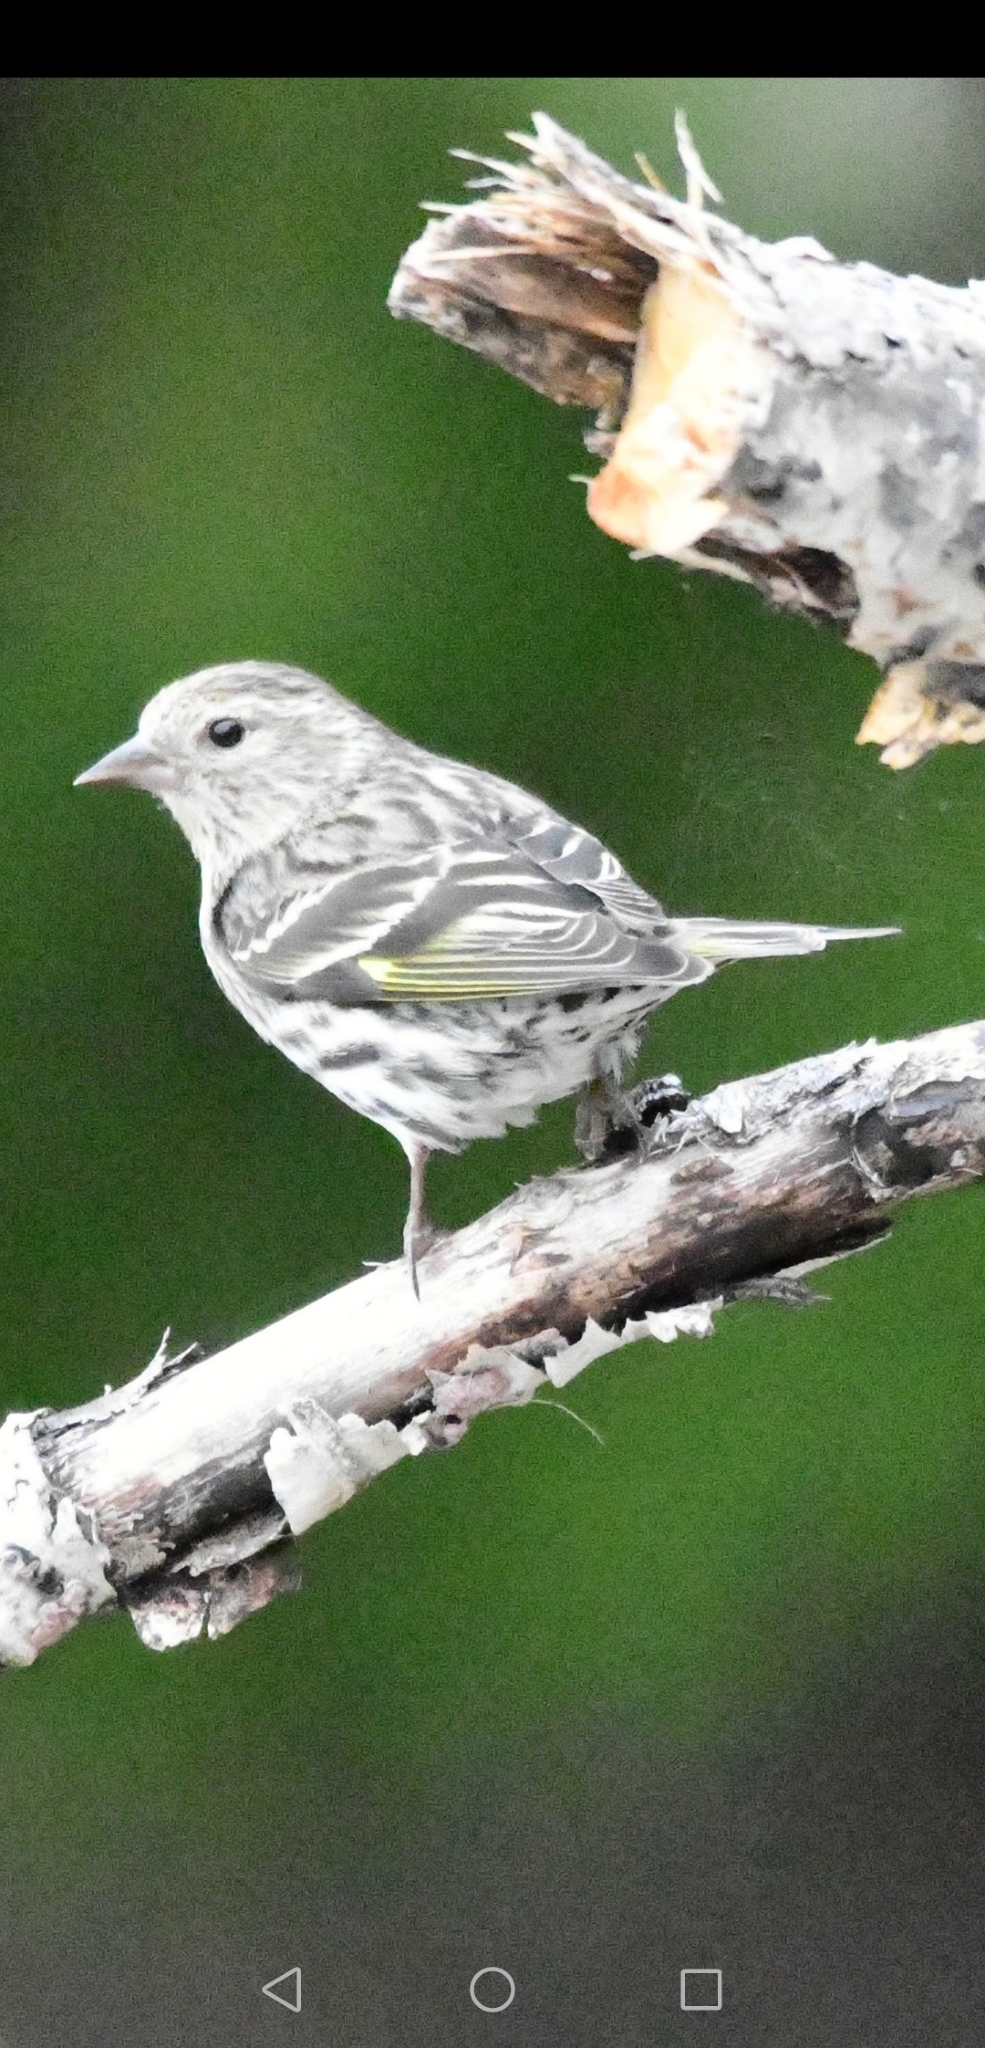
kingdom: Animalia
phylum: Chordata
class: Aves
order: Passeriformes
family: Fringillidae
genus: Spinus
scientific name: Spinus pinus
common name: Pine siskin
